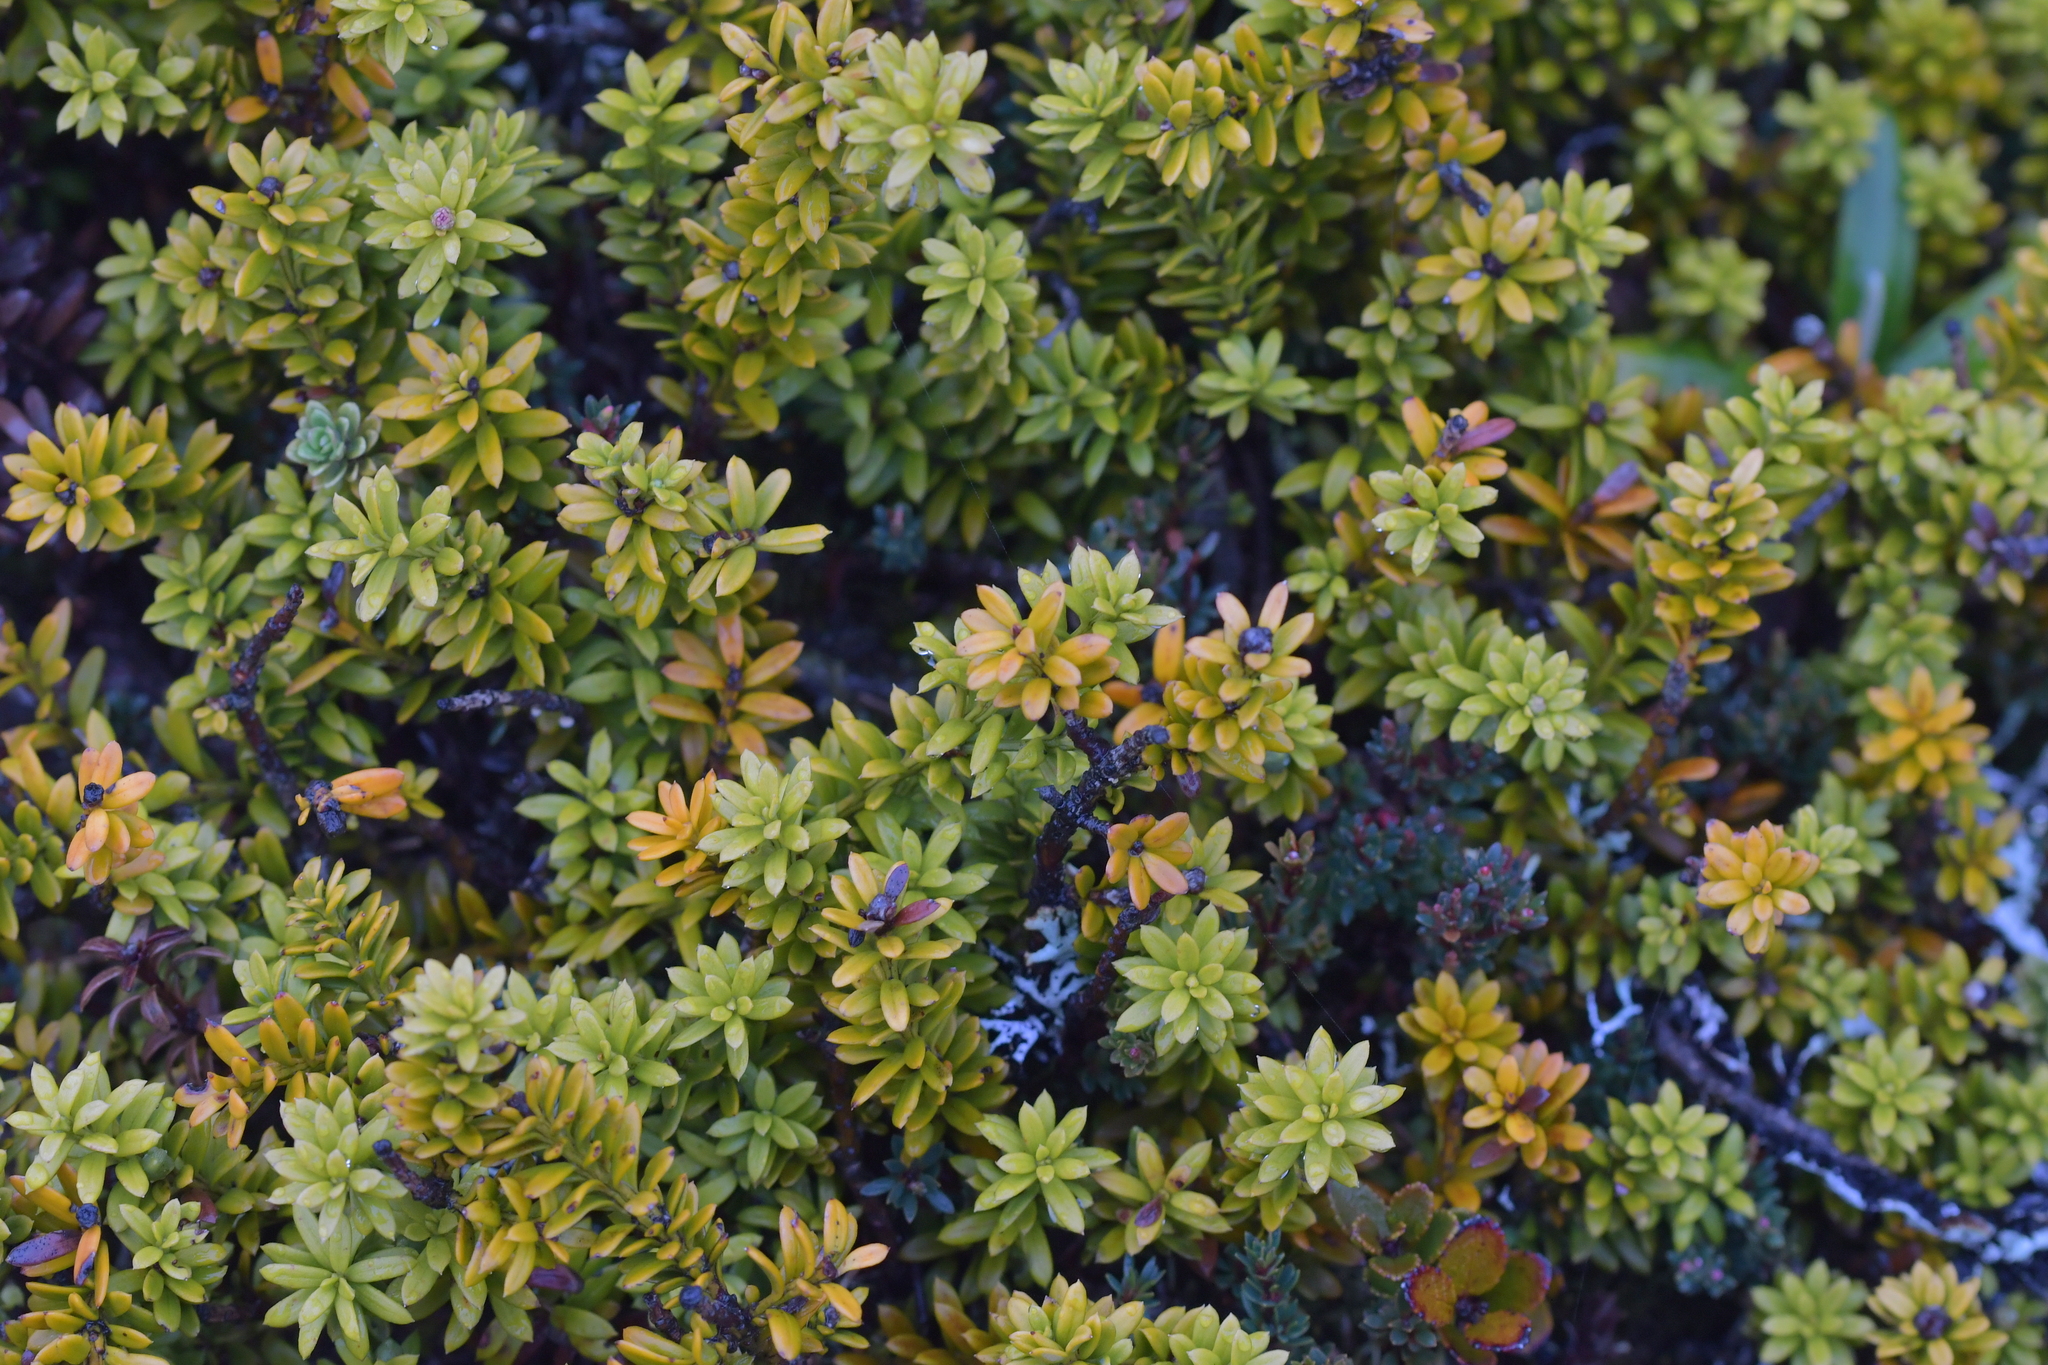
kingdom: Plantae
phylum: Tracheophyta
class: Pinopsida
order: Pinales
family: Podocarpaceae
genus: Podocarpus
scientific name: Podocarpus nivalis
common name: Alpine totara
